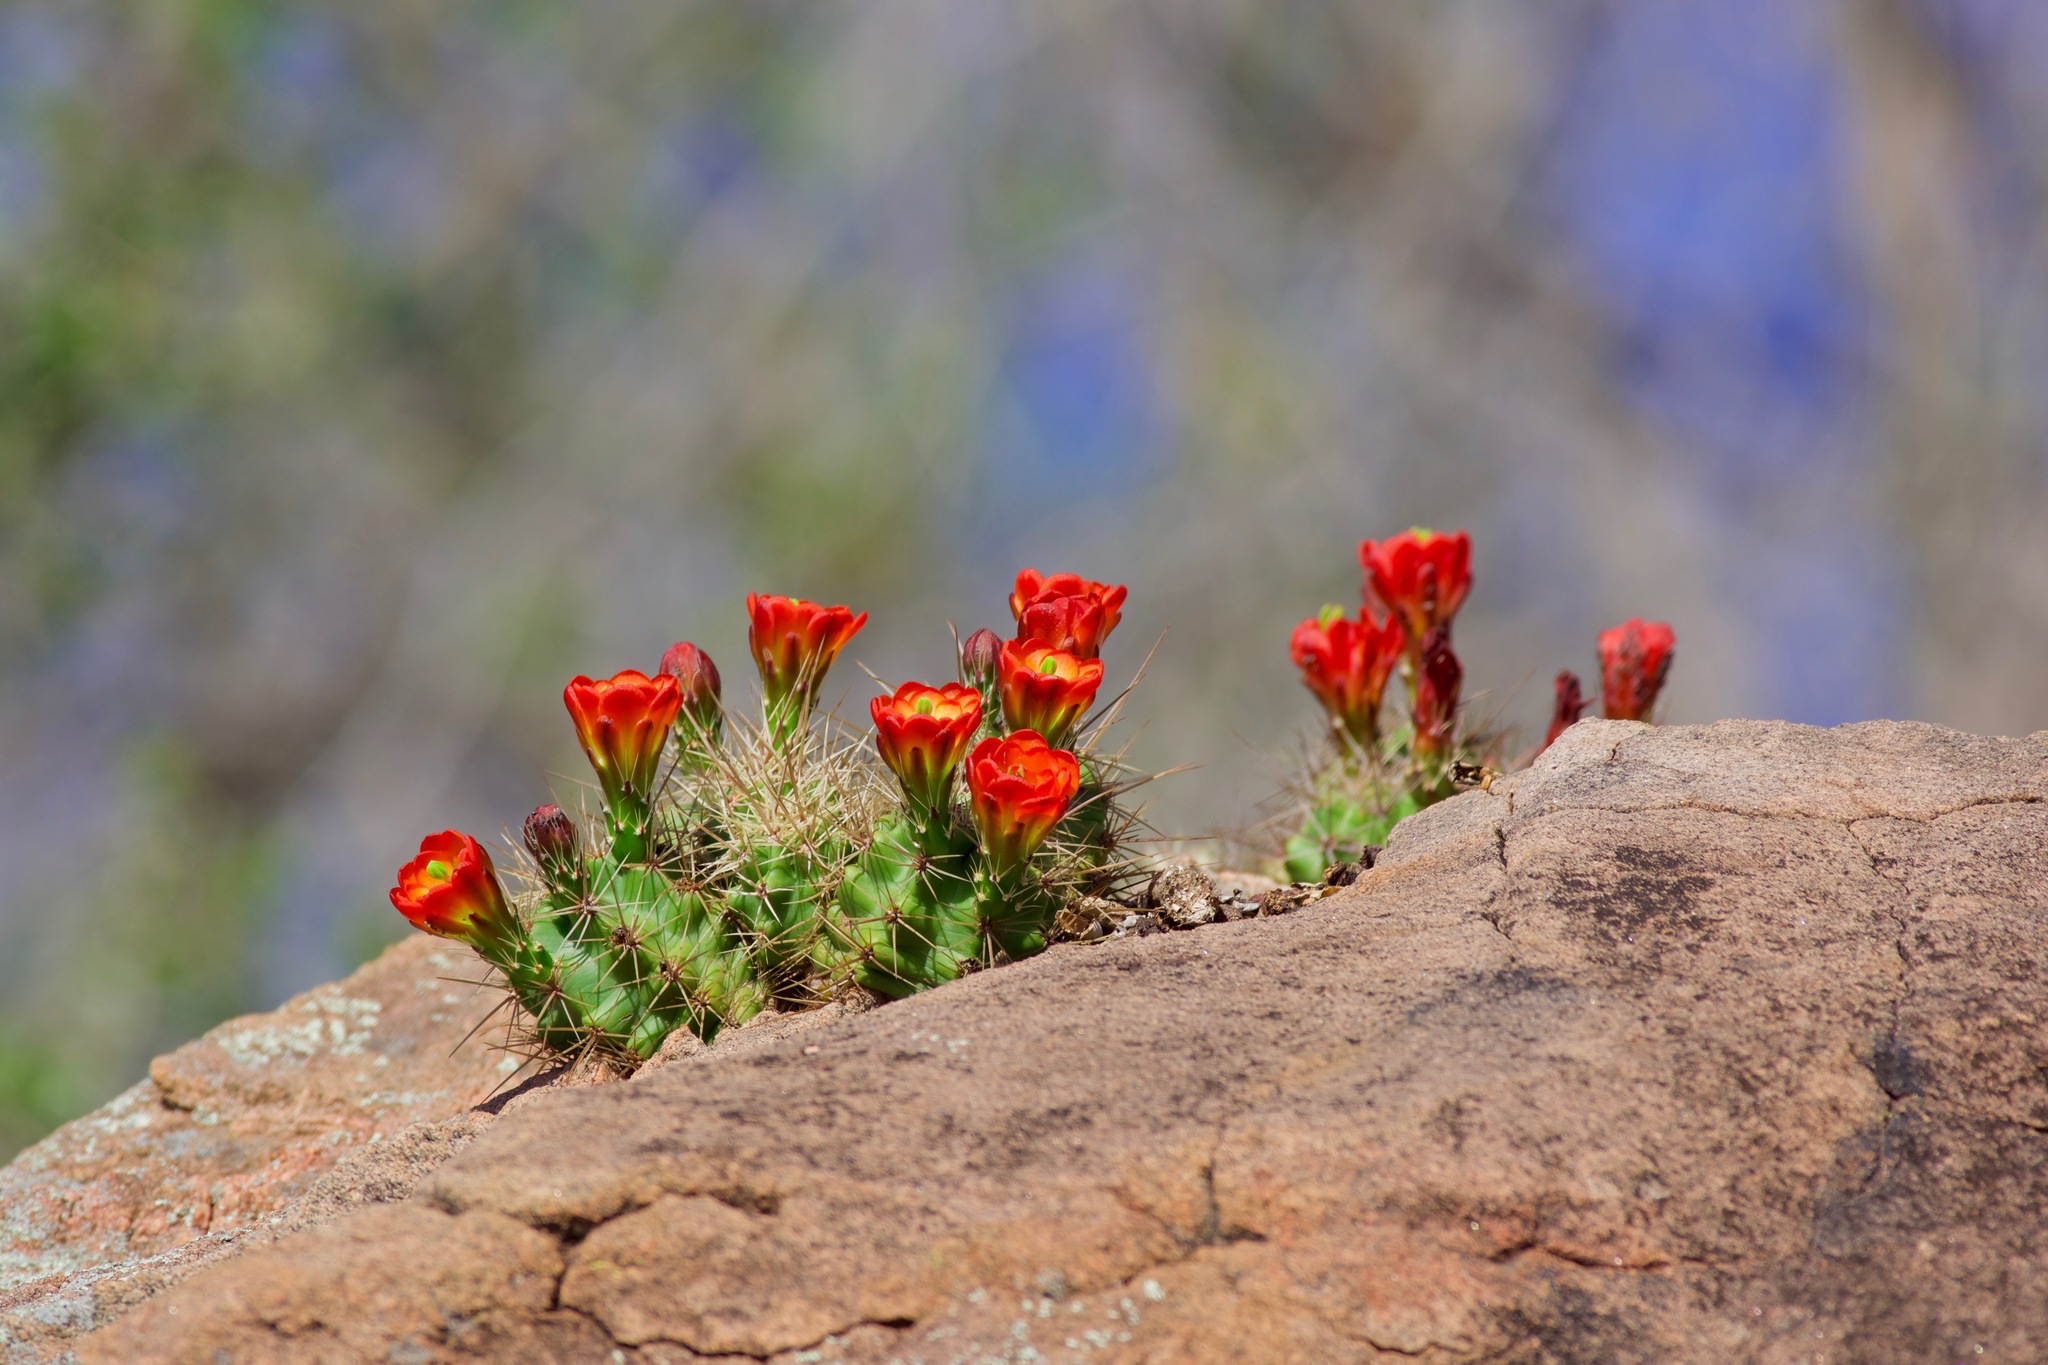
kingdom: Plantae
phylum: Tracheophyta
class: Magnoliopsida
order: Caryophyllales
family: Cactaceae
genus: Echinocereus
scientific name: Echinocereus coccineus
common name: Scarlet hedgehog cactus
